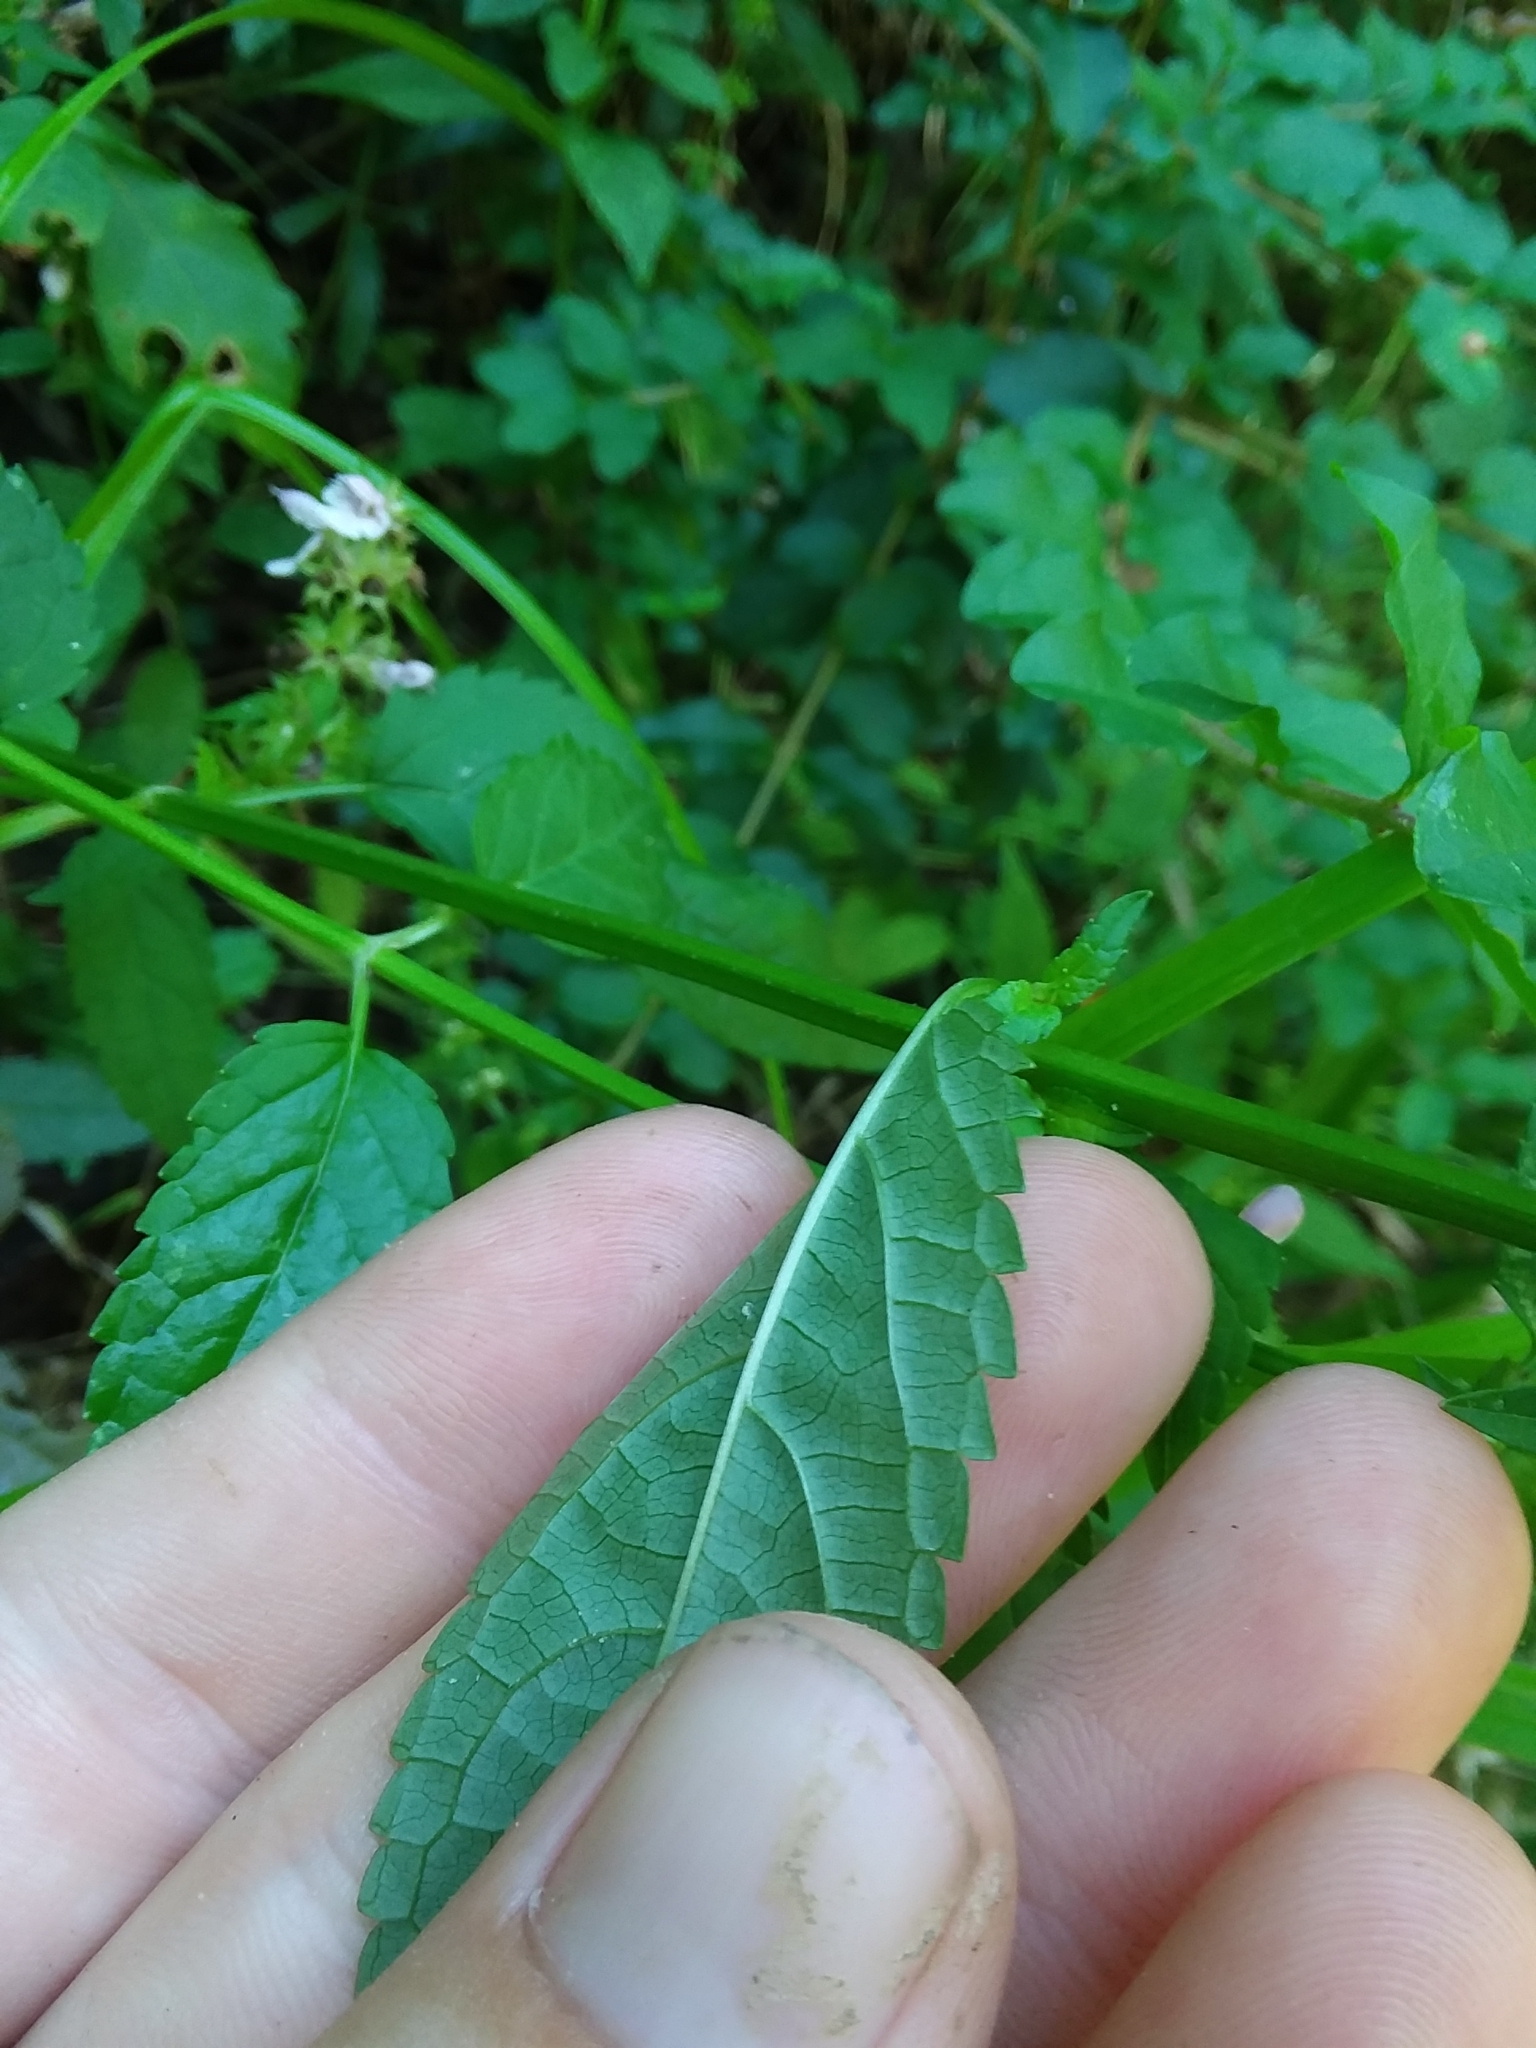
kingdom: Plantae
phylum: Tracheophyta
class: Magnoliopsida
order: Lamiales
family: Lamiaceae
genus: Stachys
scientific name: Stachys tenuifolia
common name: Smooth hedge-nettle
